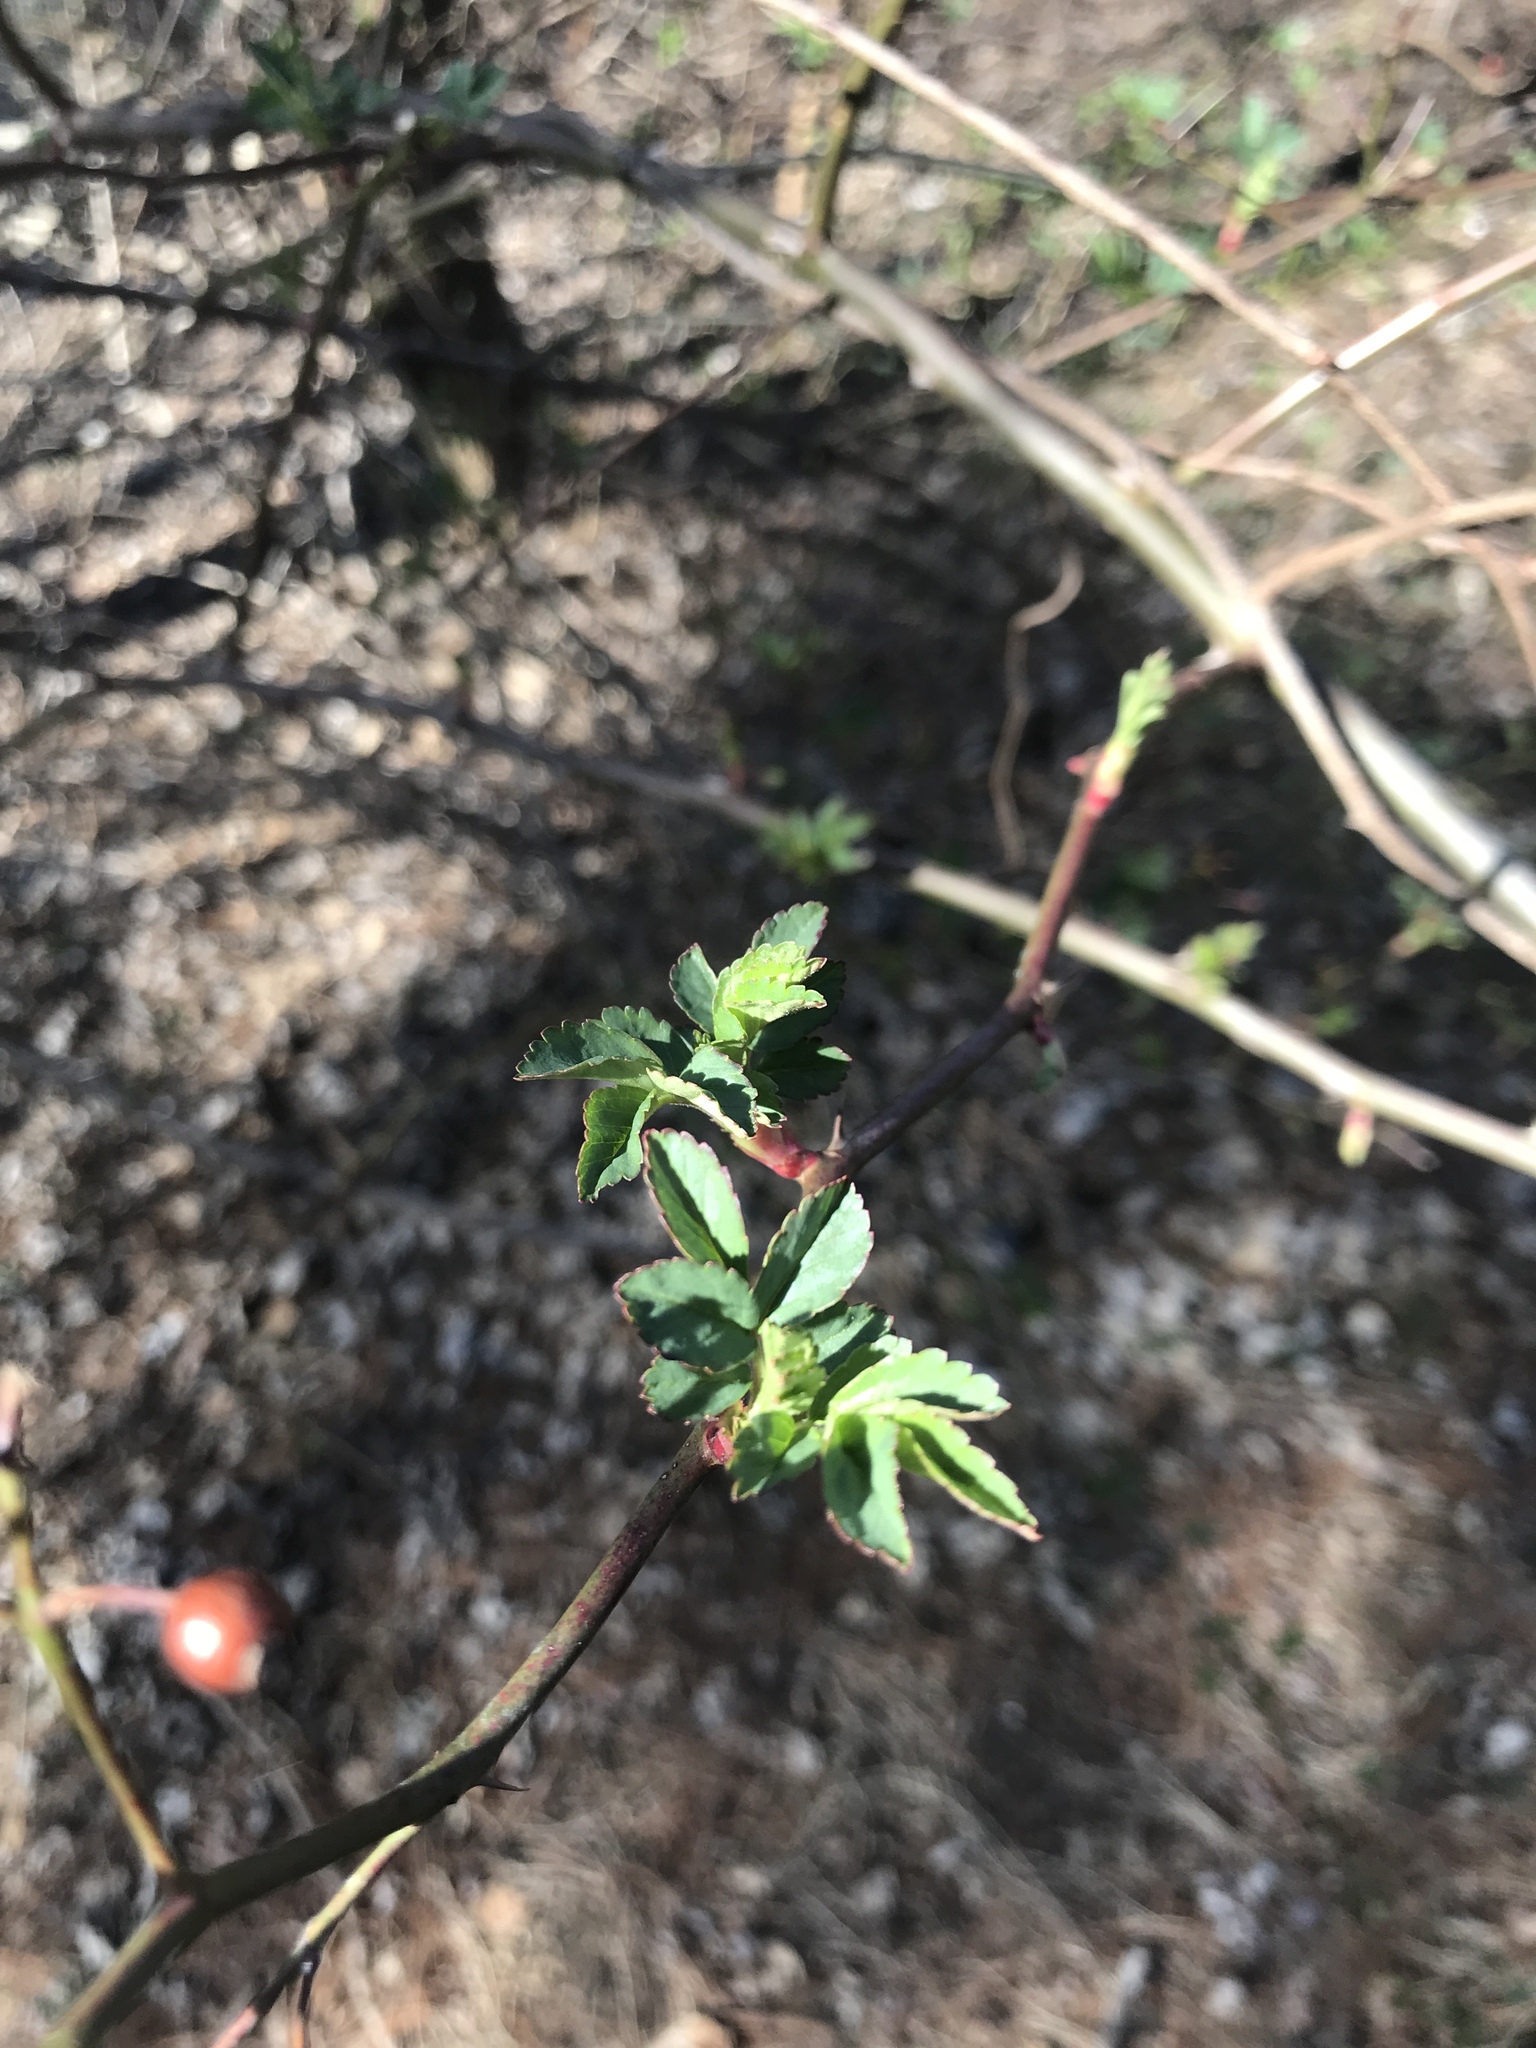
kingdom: Plantae
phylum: Tracheophyta
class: Magnoliopsida
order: Rosales
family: Rosaceae
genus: Rosa
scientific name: Rosa multiflora
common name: Multiflora rose
